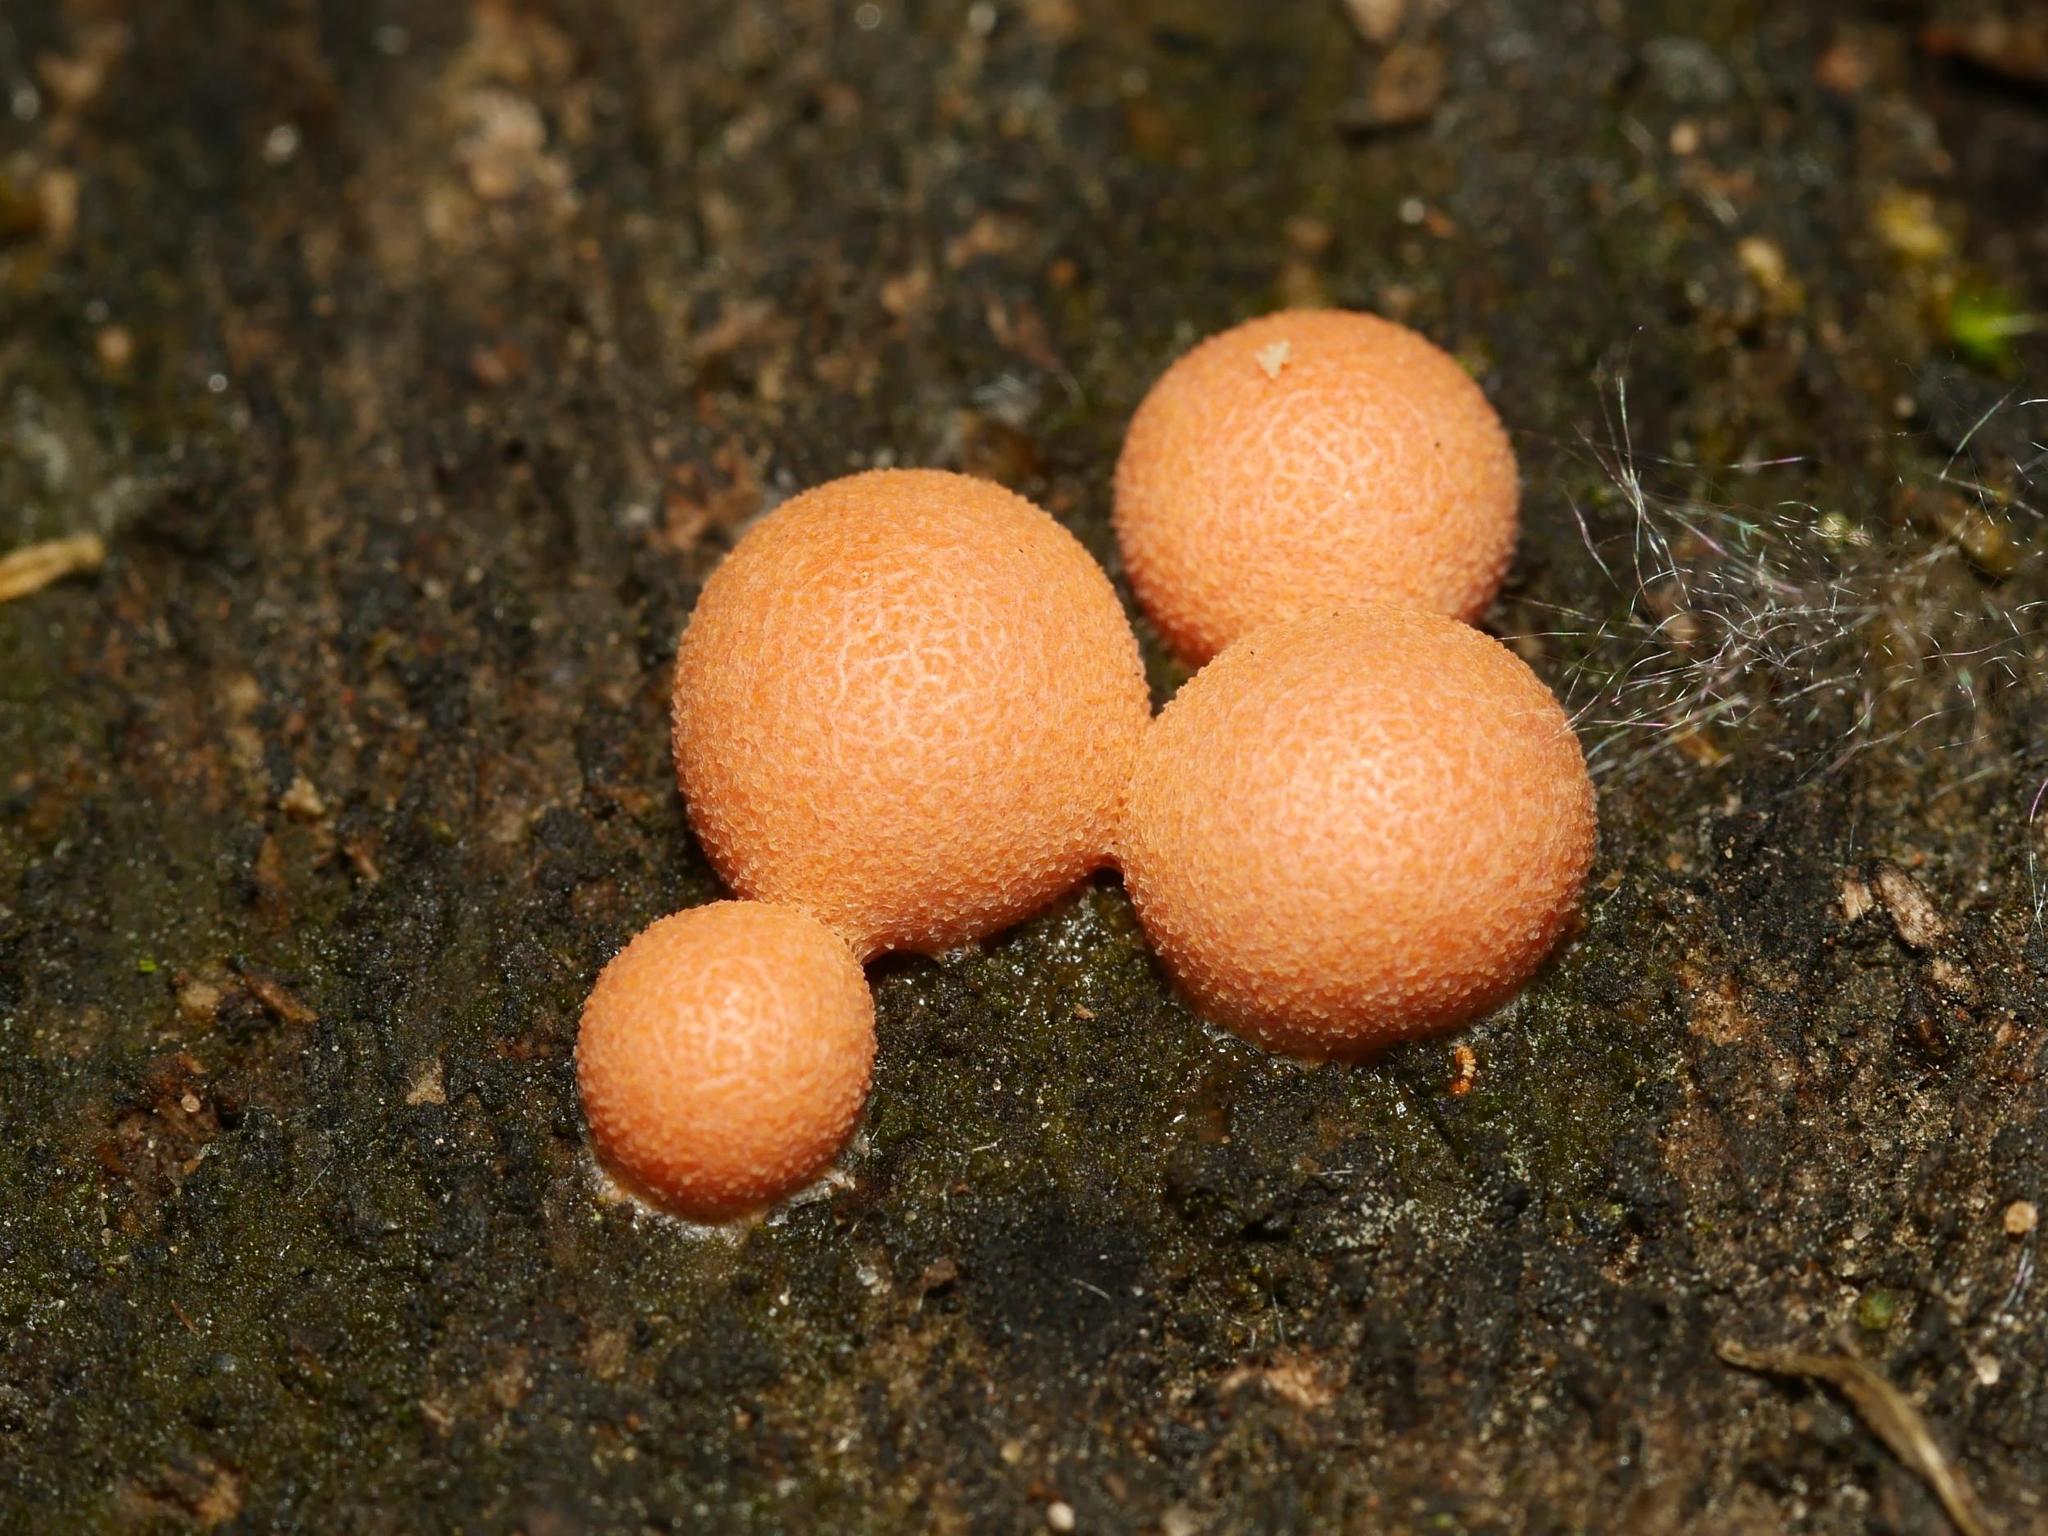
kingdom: Protozoa
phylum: Mycetozoa
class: Myxomycetes
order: Cribrariales
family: Tubiferaceae
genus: Lycogala
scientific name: Lycogala epidendrum
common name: Wolf's milk
